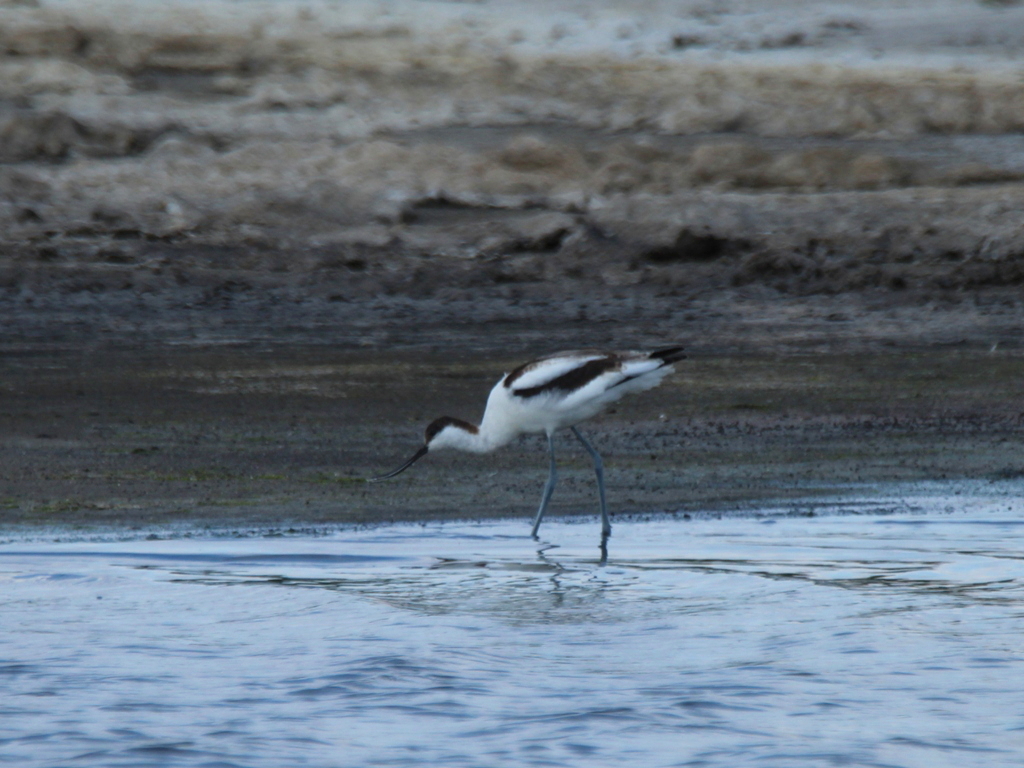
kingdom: Animalia
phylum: Chordata
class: Aves
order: Charadriiformes
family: Recurvirostridae
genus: Recurvirostra
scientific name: Recurvirostra avosetta
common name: Pied avocet
